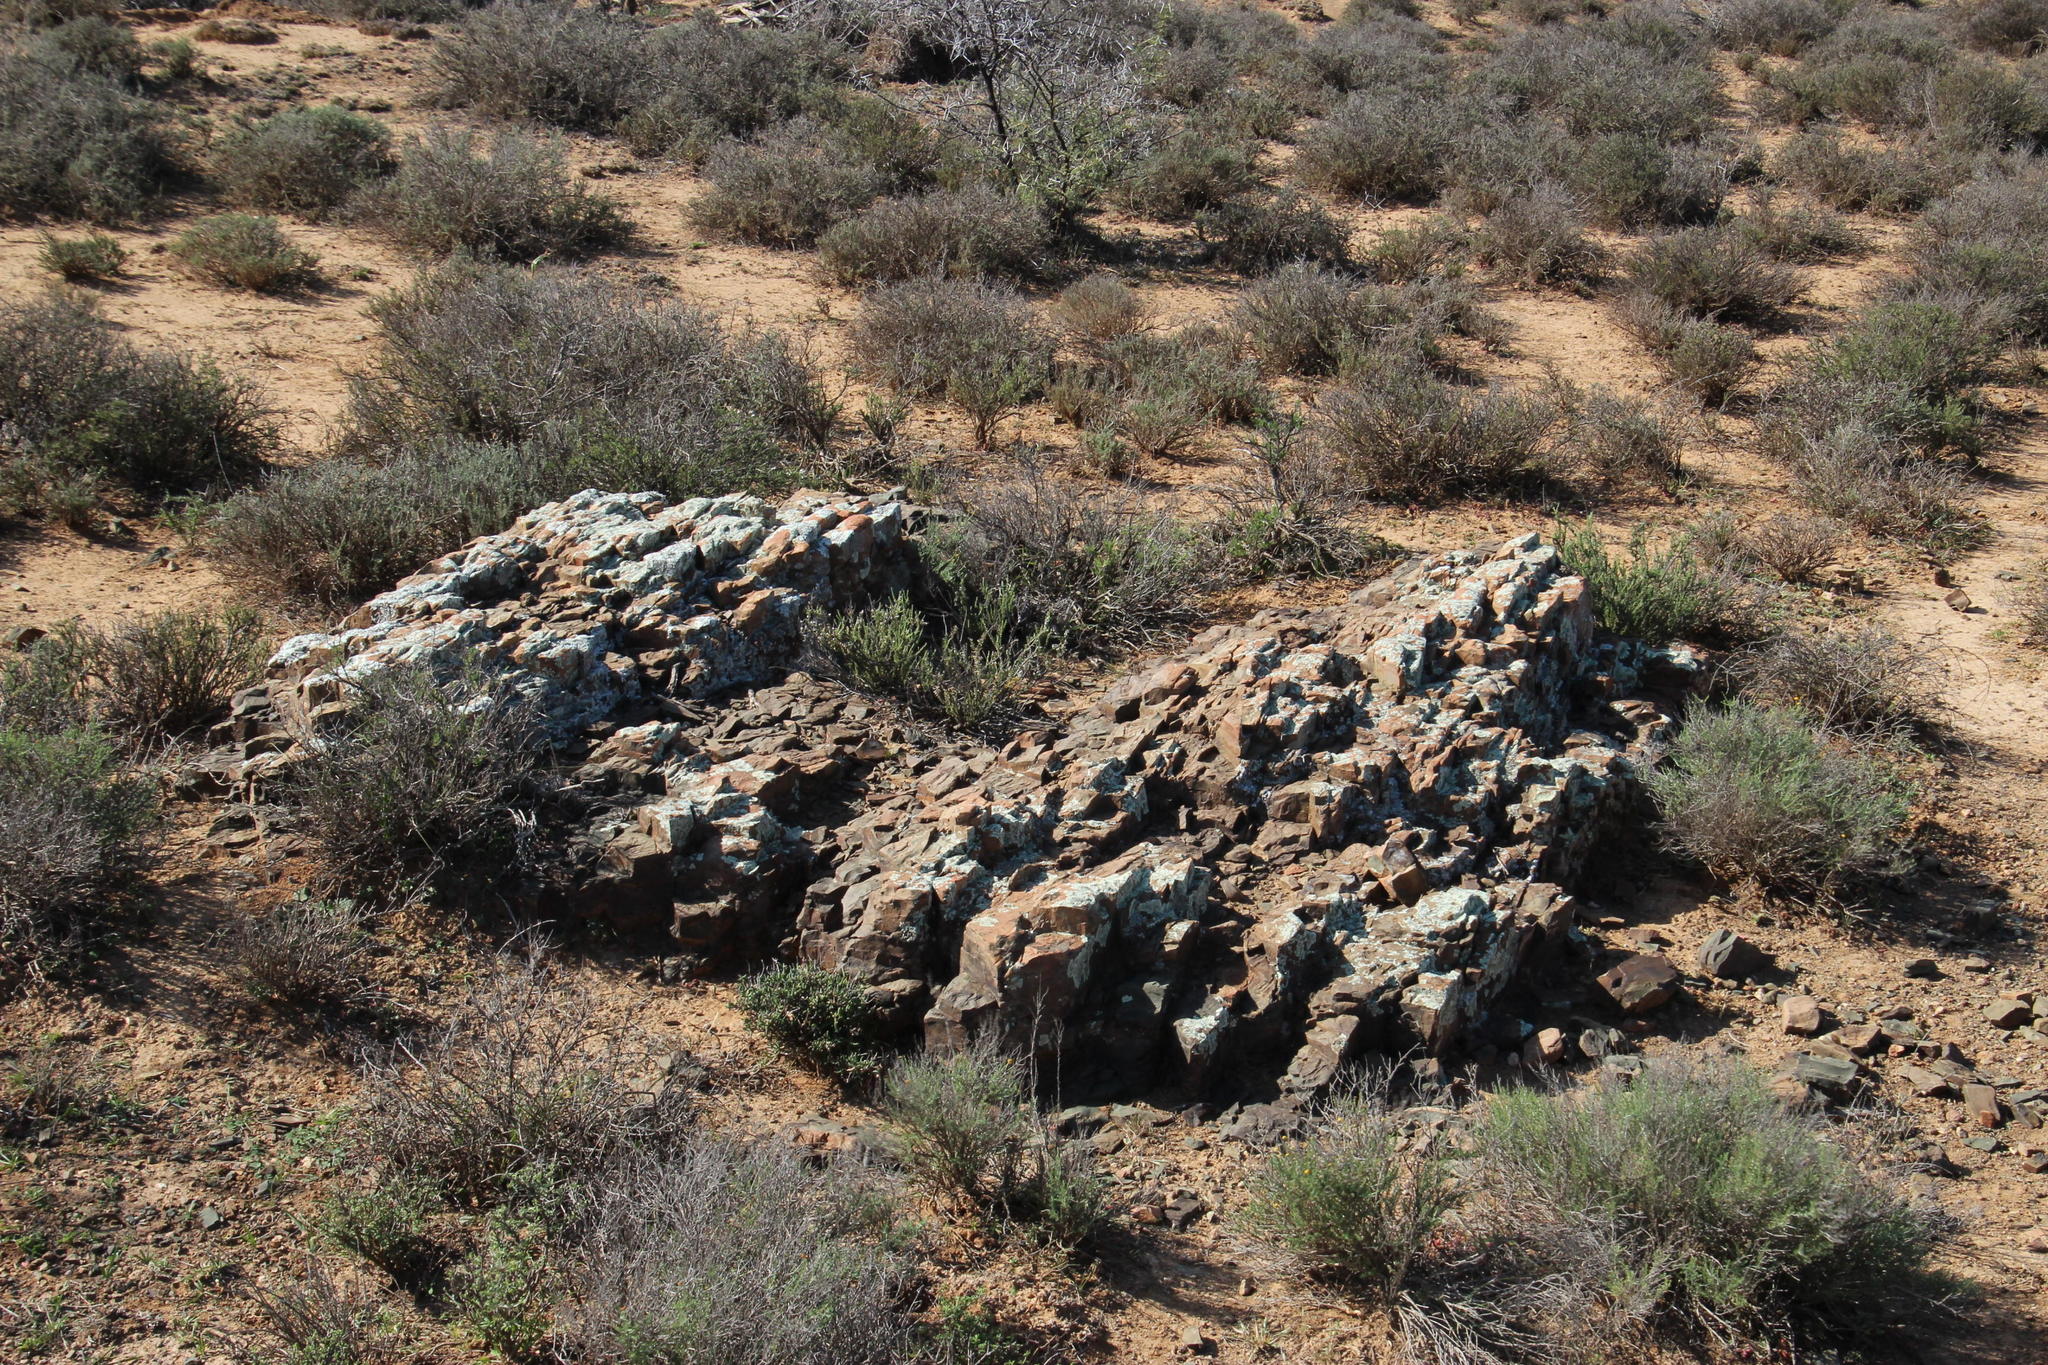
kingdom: Fungi
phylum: Ascomycota
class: Lecanoromycetes
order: Lecanorales
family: Parmeliaceae
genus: Xanthoparmelia
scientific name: Xanthoparmelia serusiauxii
